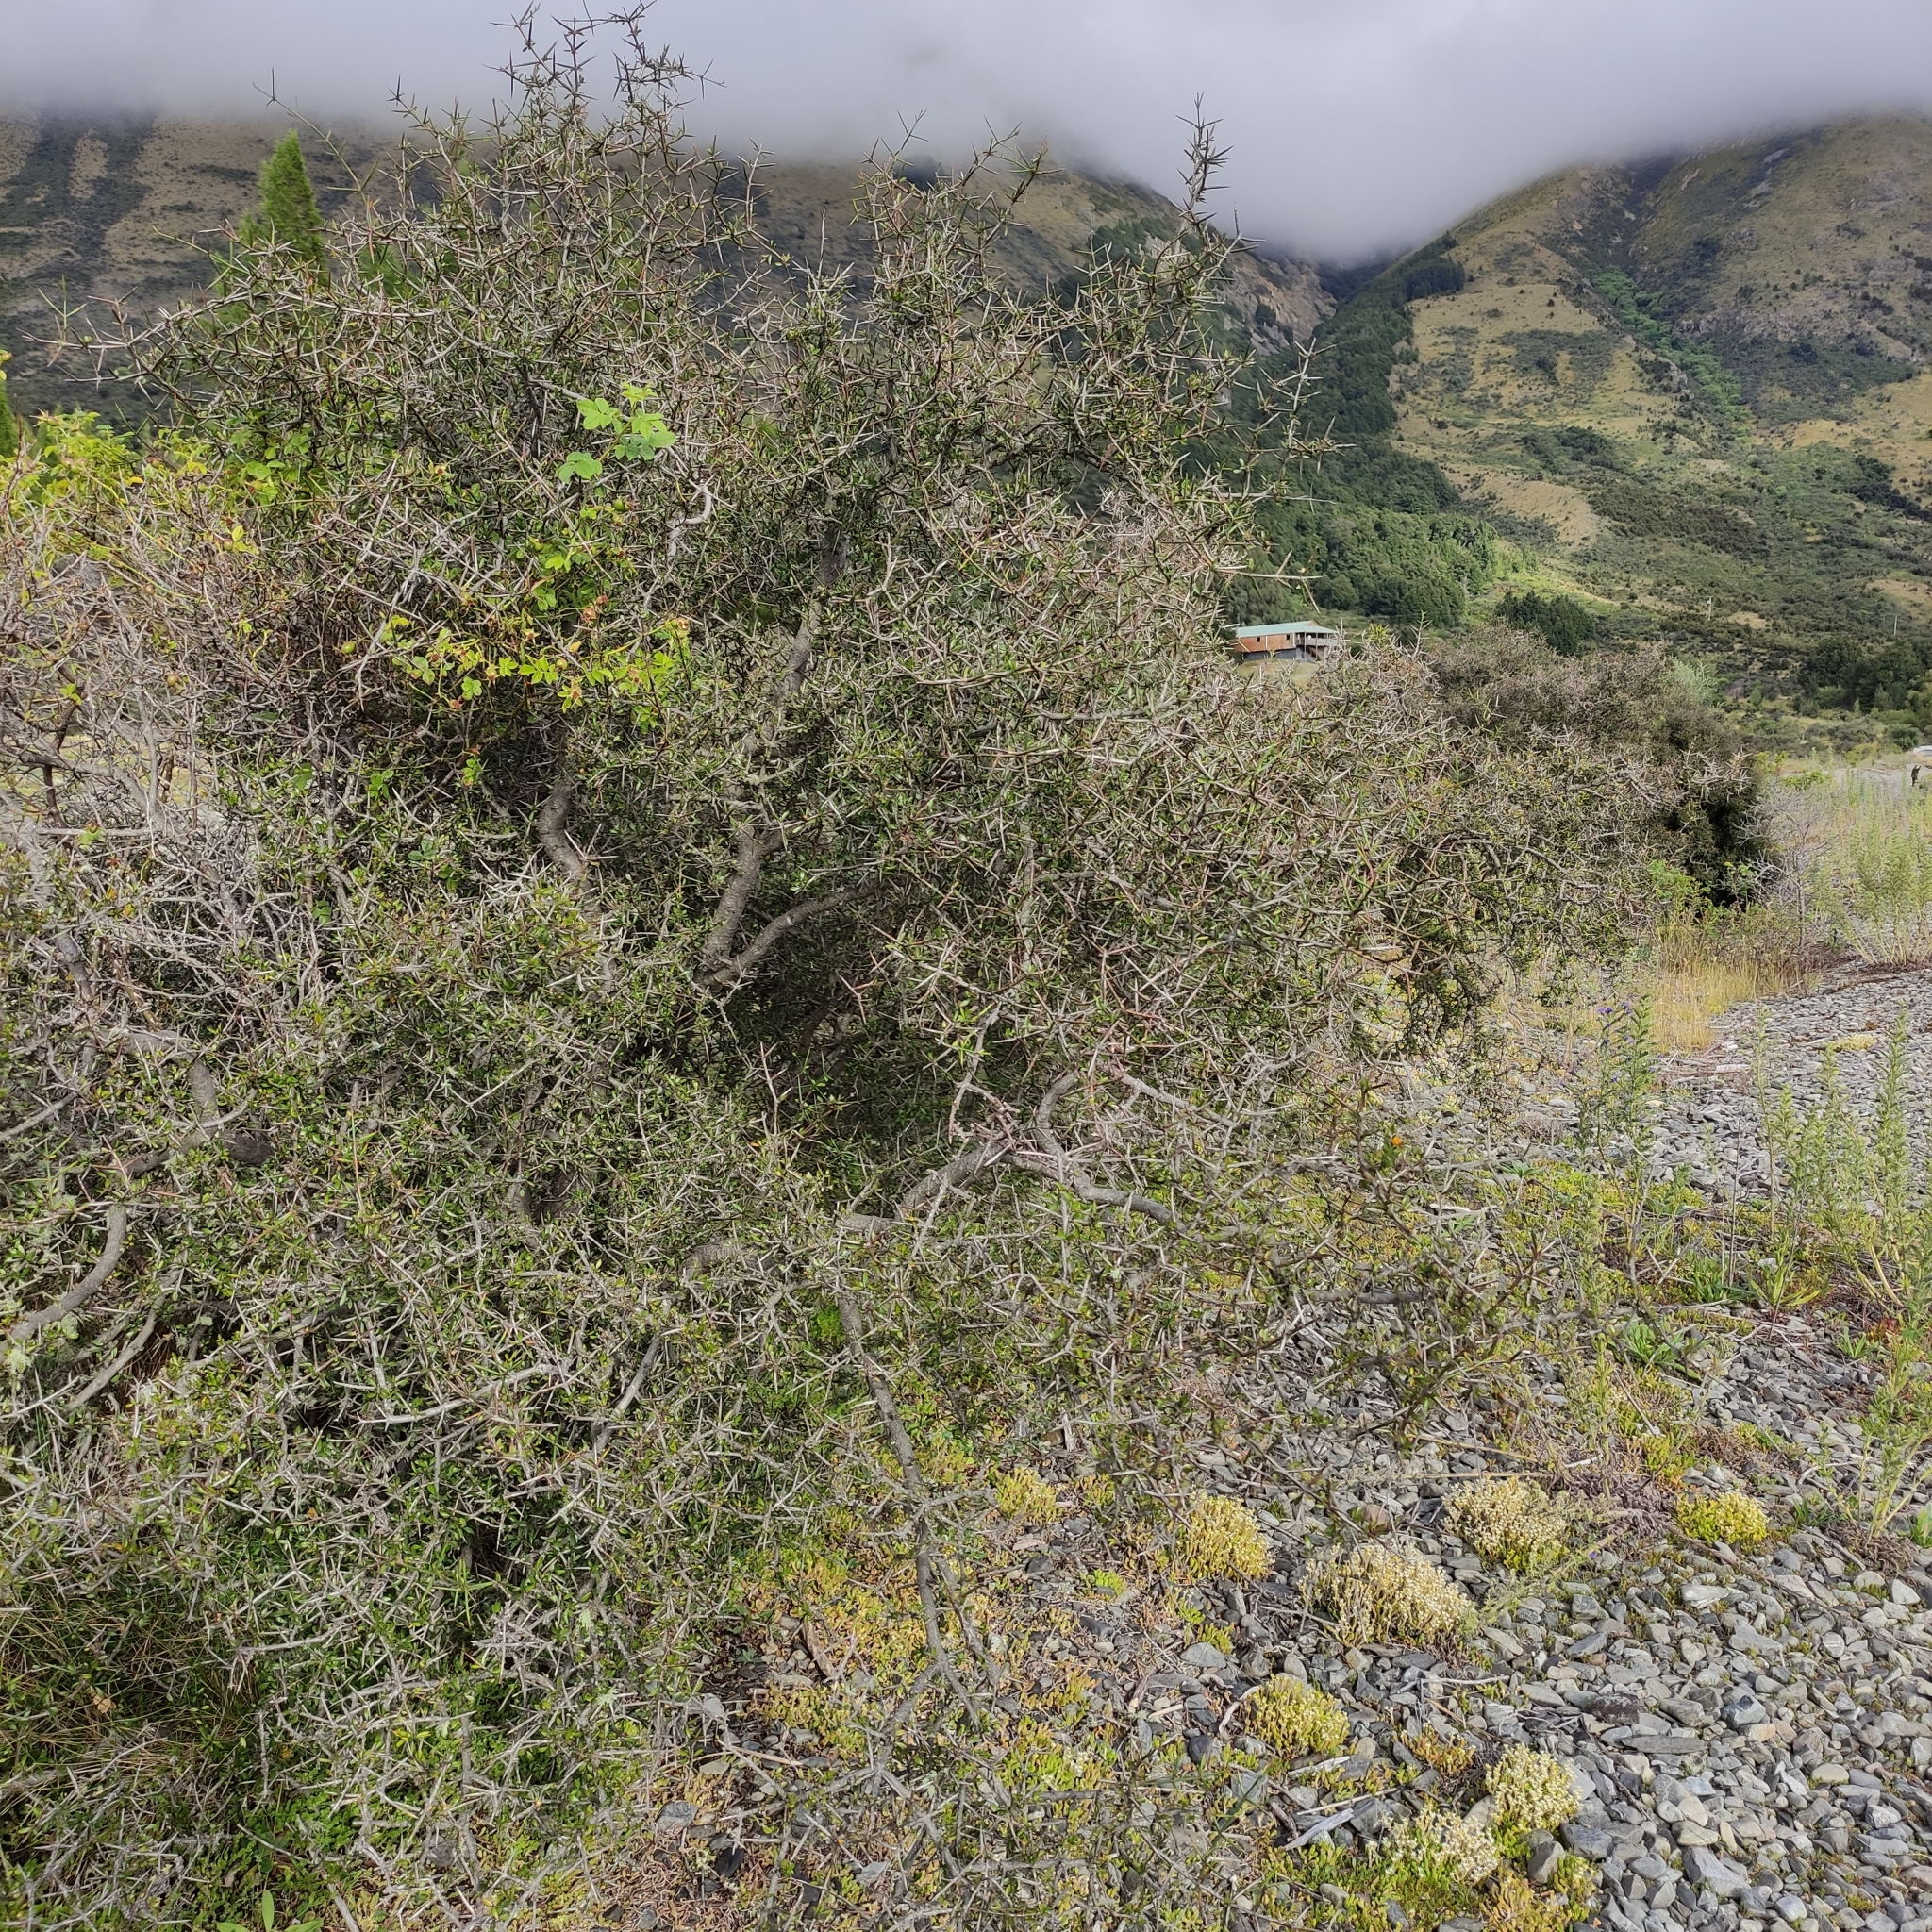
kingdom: Plantae
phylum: Tracheophyta
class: Magnoliopsida
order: Rosales
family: Rhamnaceae
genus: Discaria
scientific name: Discaria toumatou
